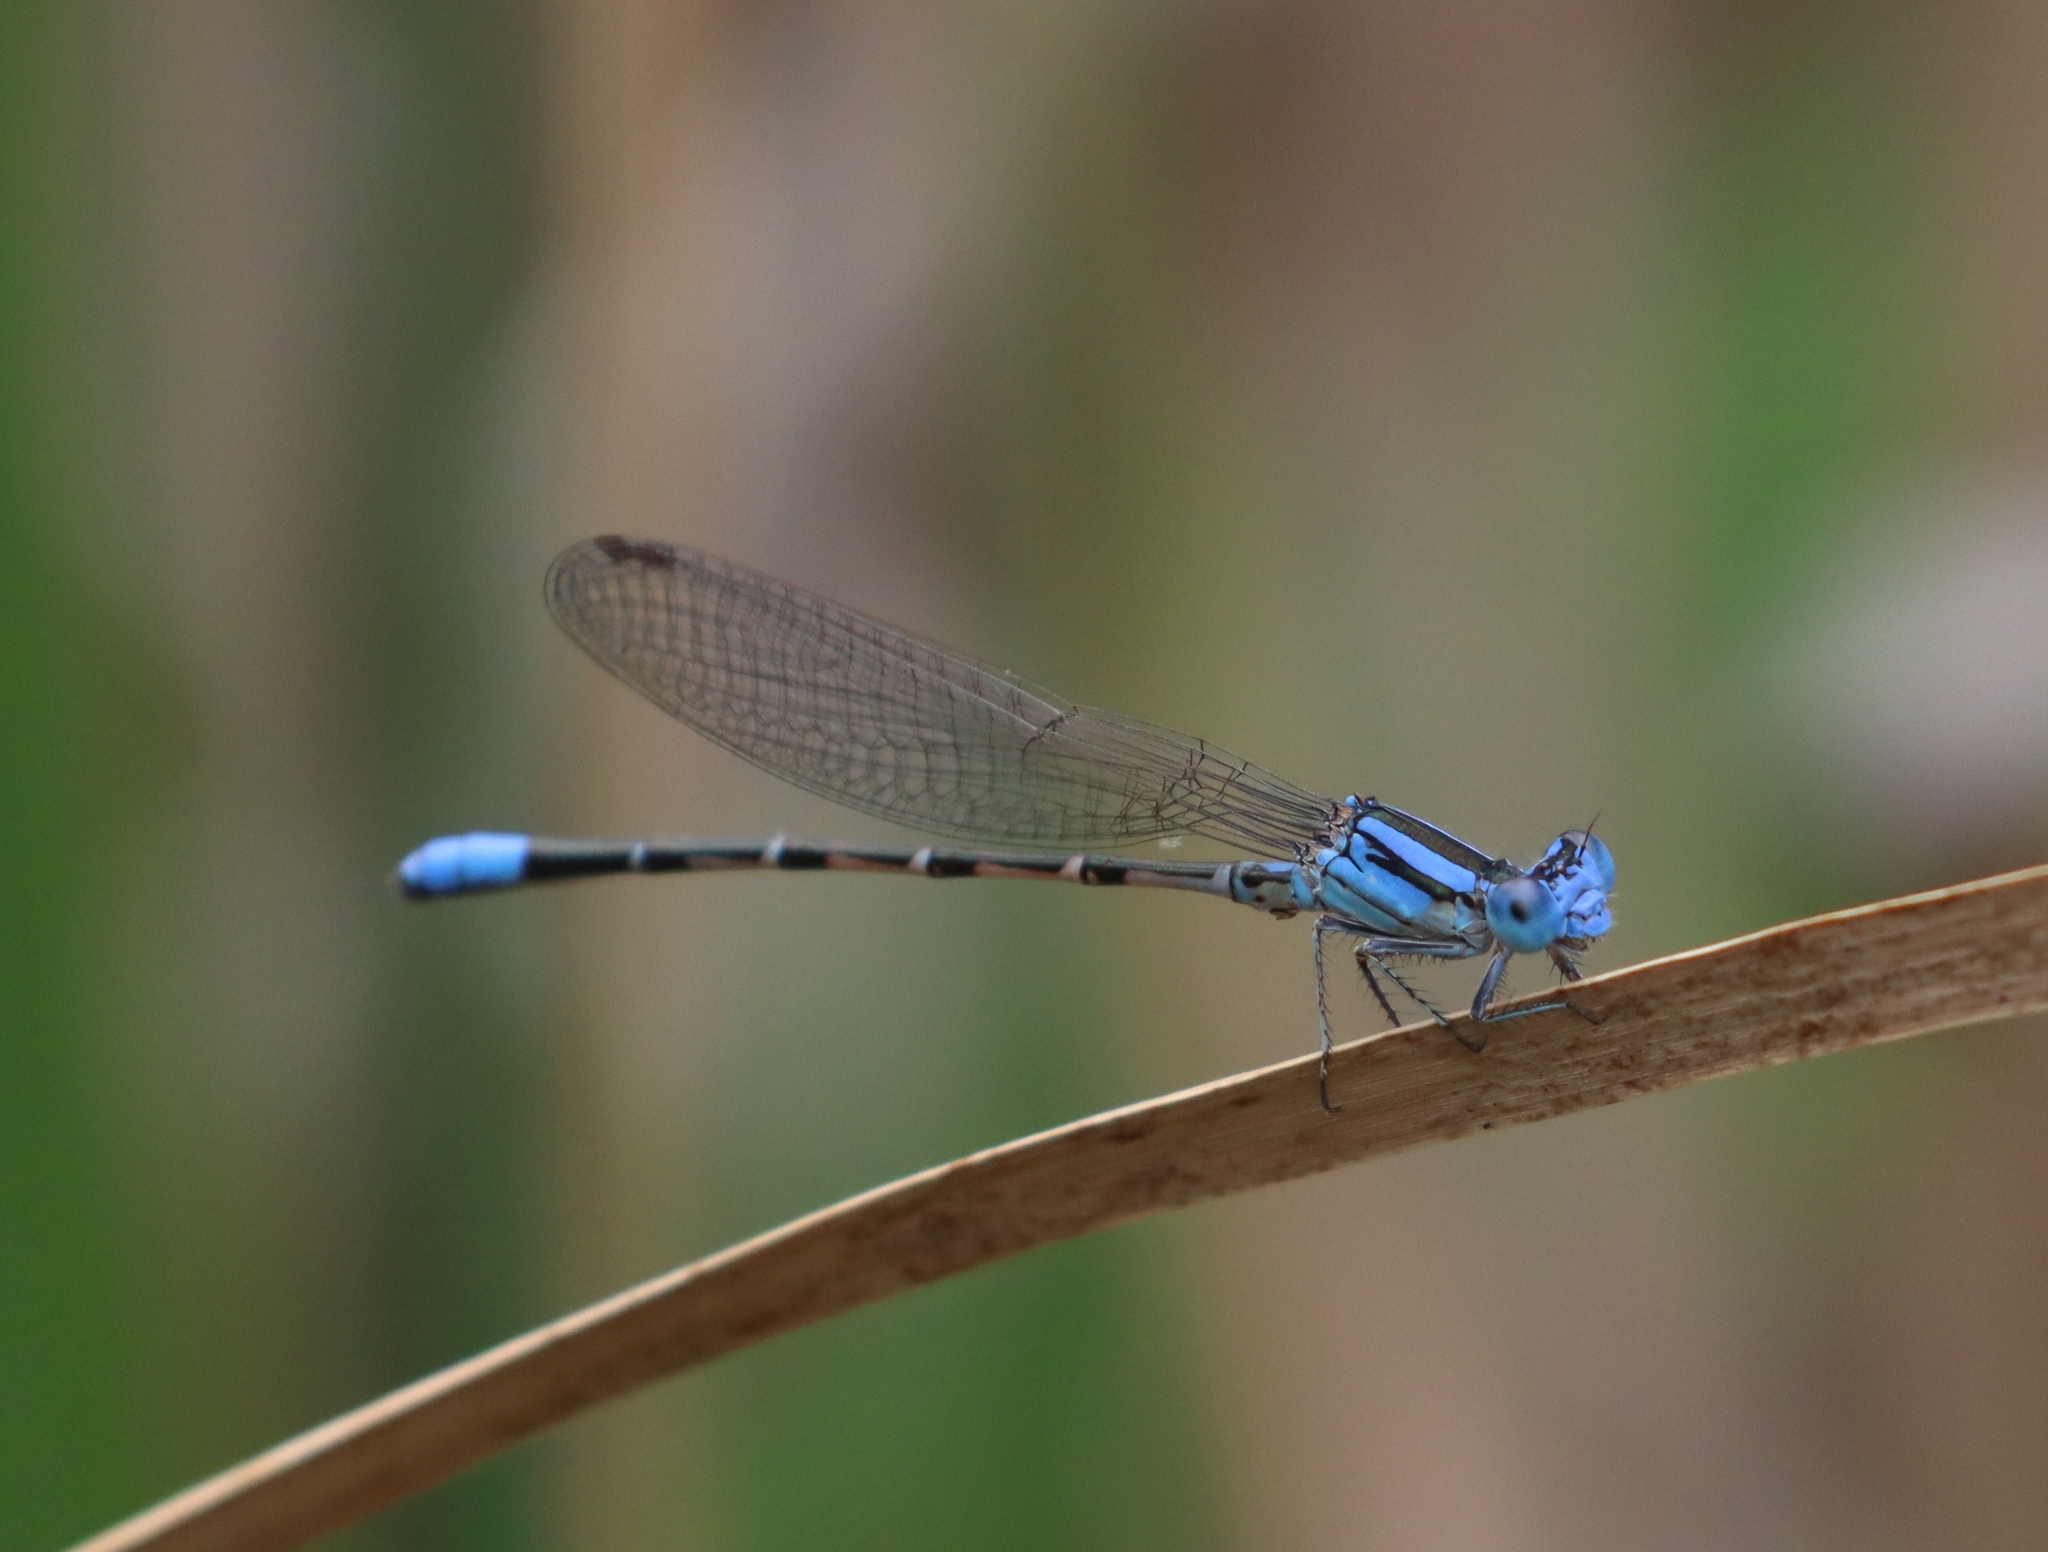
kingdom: Animalia
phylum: Arthropoda
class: Insecta
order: Odonata
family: Coenagrionidae
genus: Argia
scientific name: Argia alberta
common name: Paiute dancer
